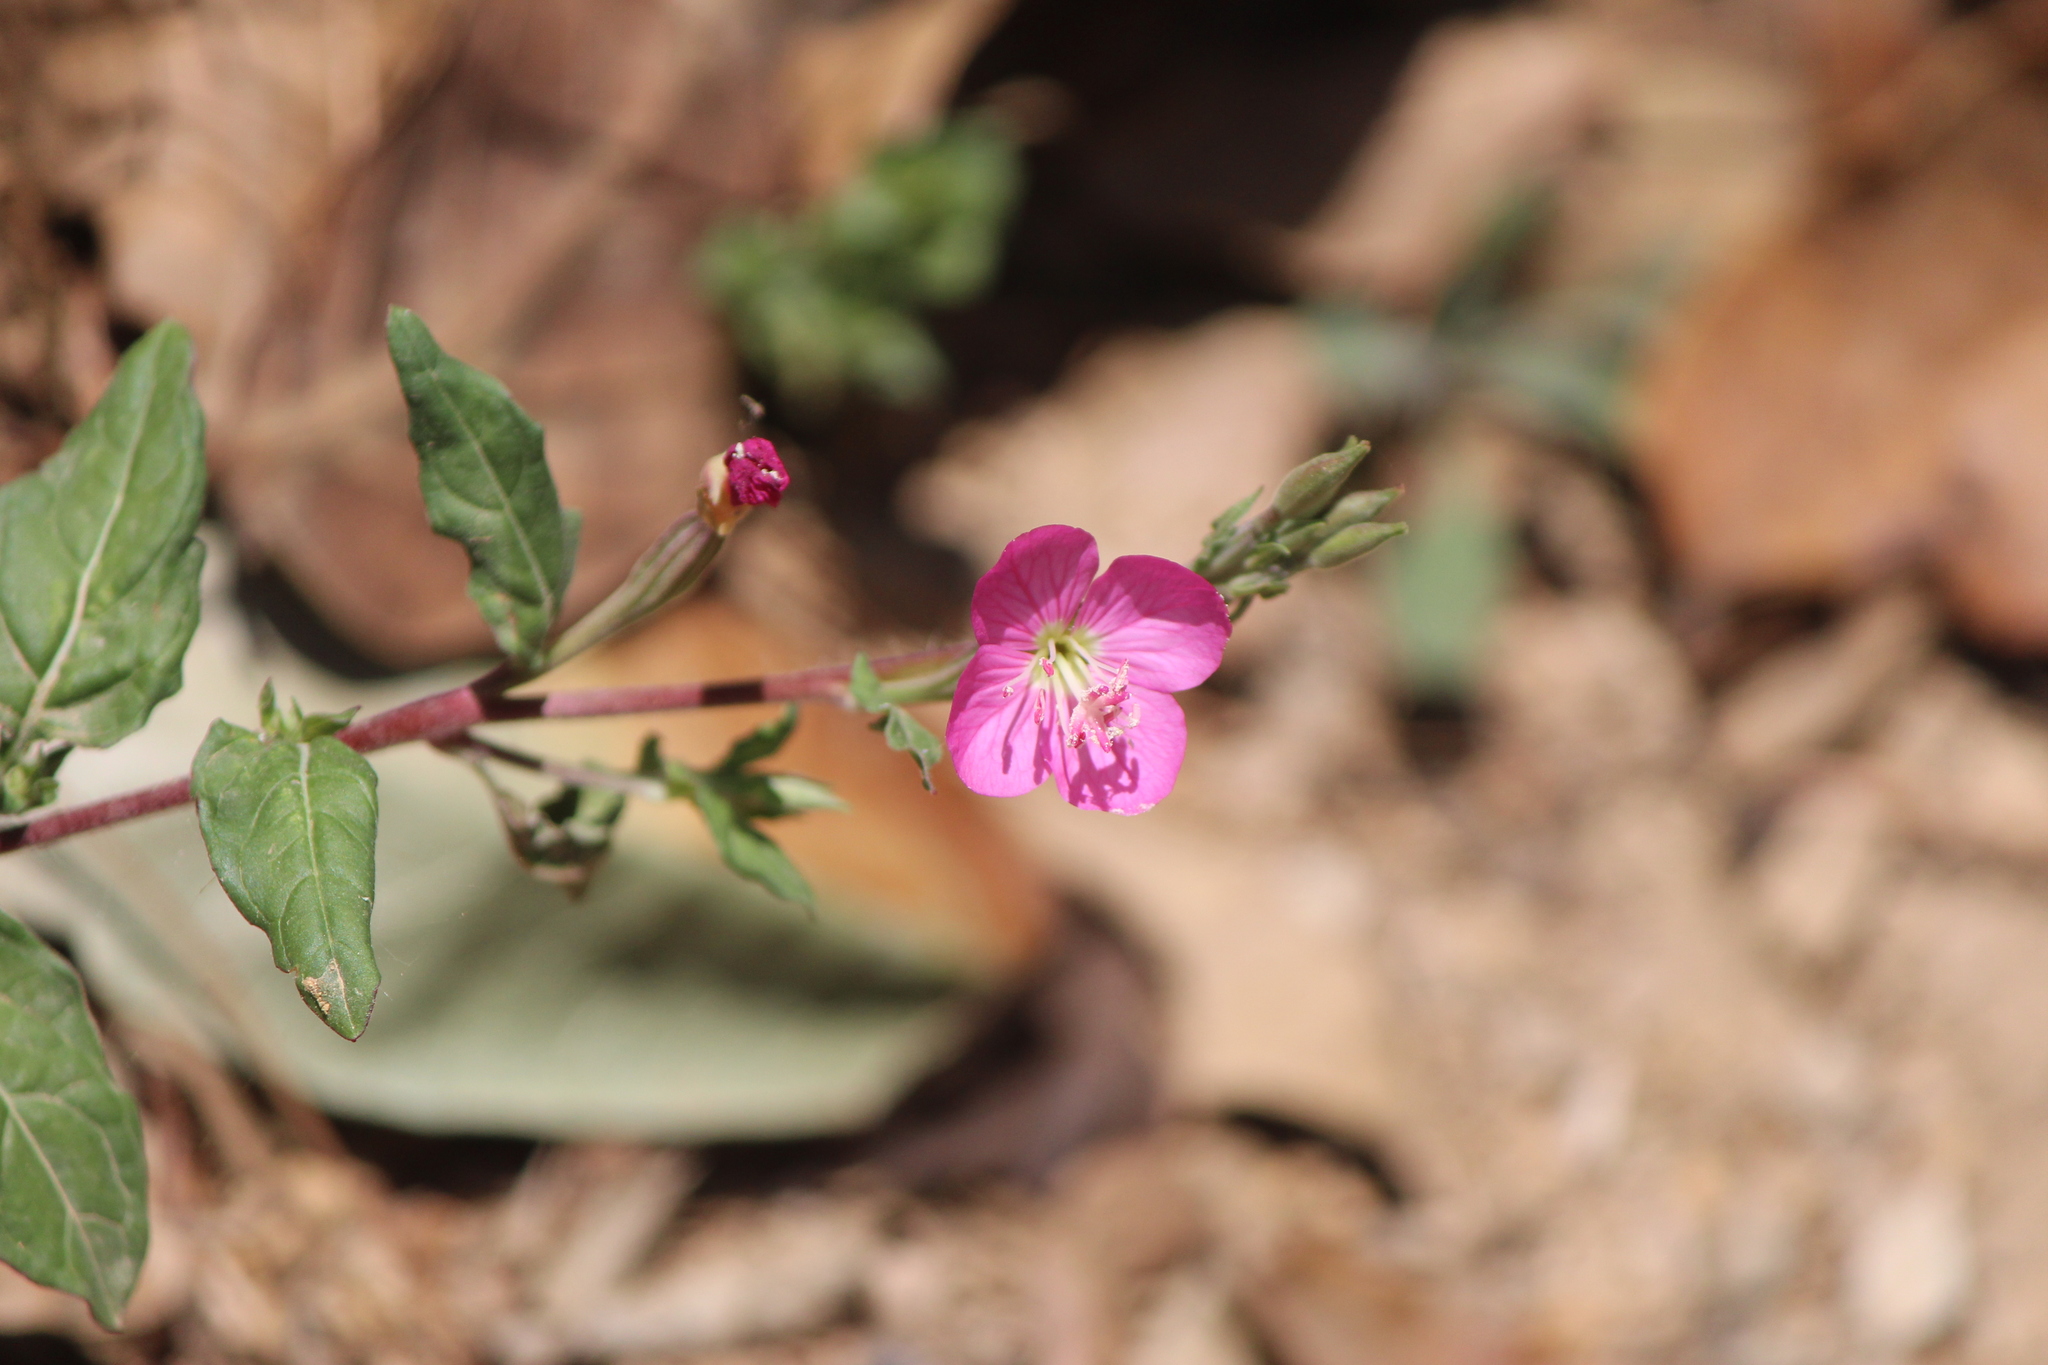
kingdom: Plantae
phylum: Tracheophyta
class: Magnoliopsida
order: Myrtales
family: Onagraceae
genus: Oenothera
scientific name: Oenothera rosea
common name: Rosy evening-primrose
